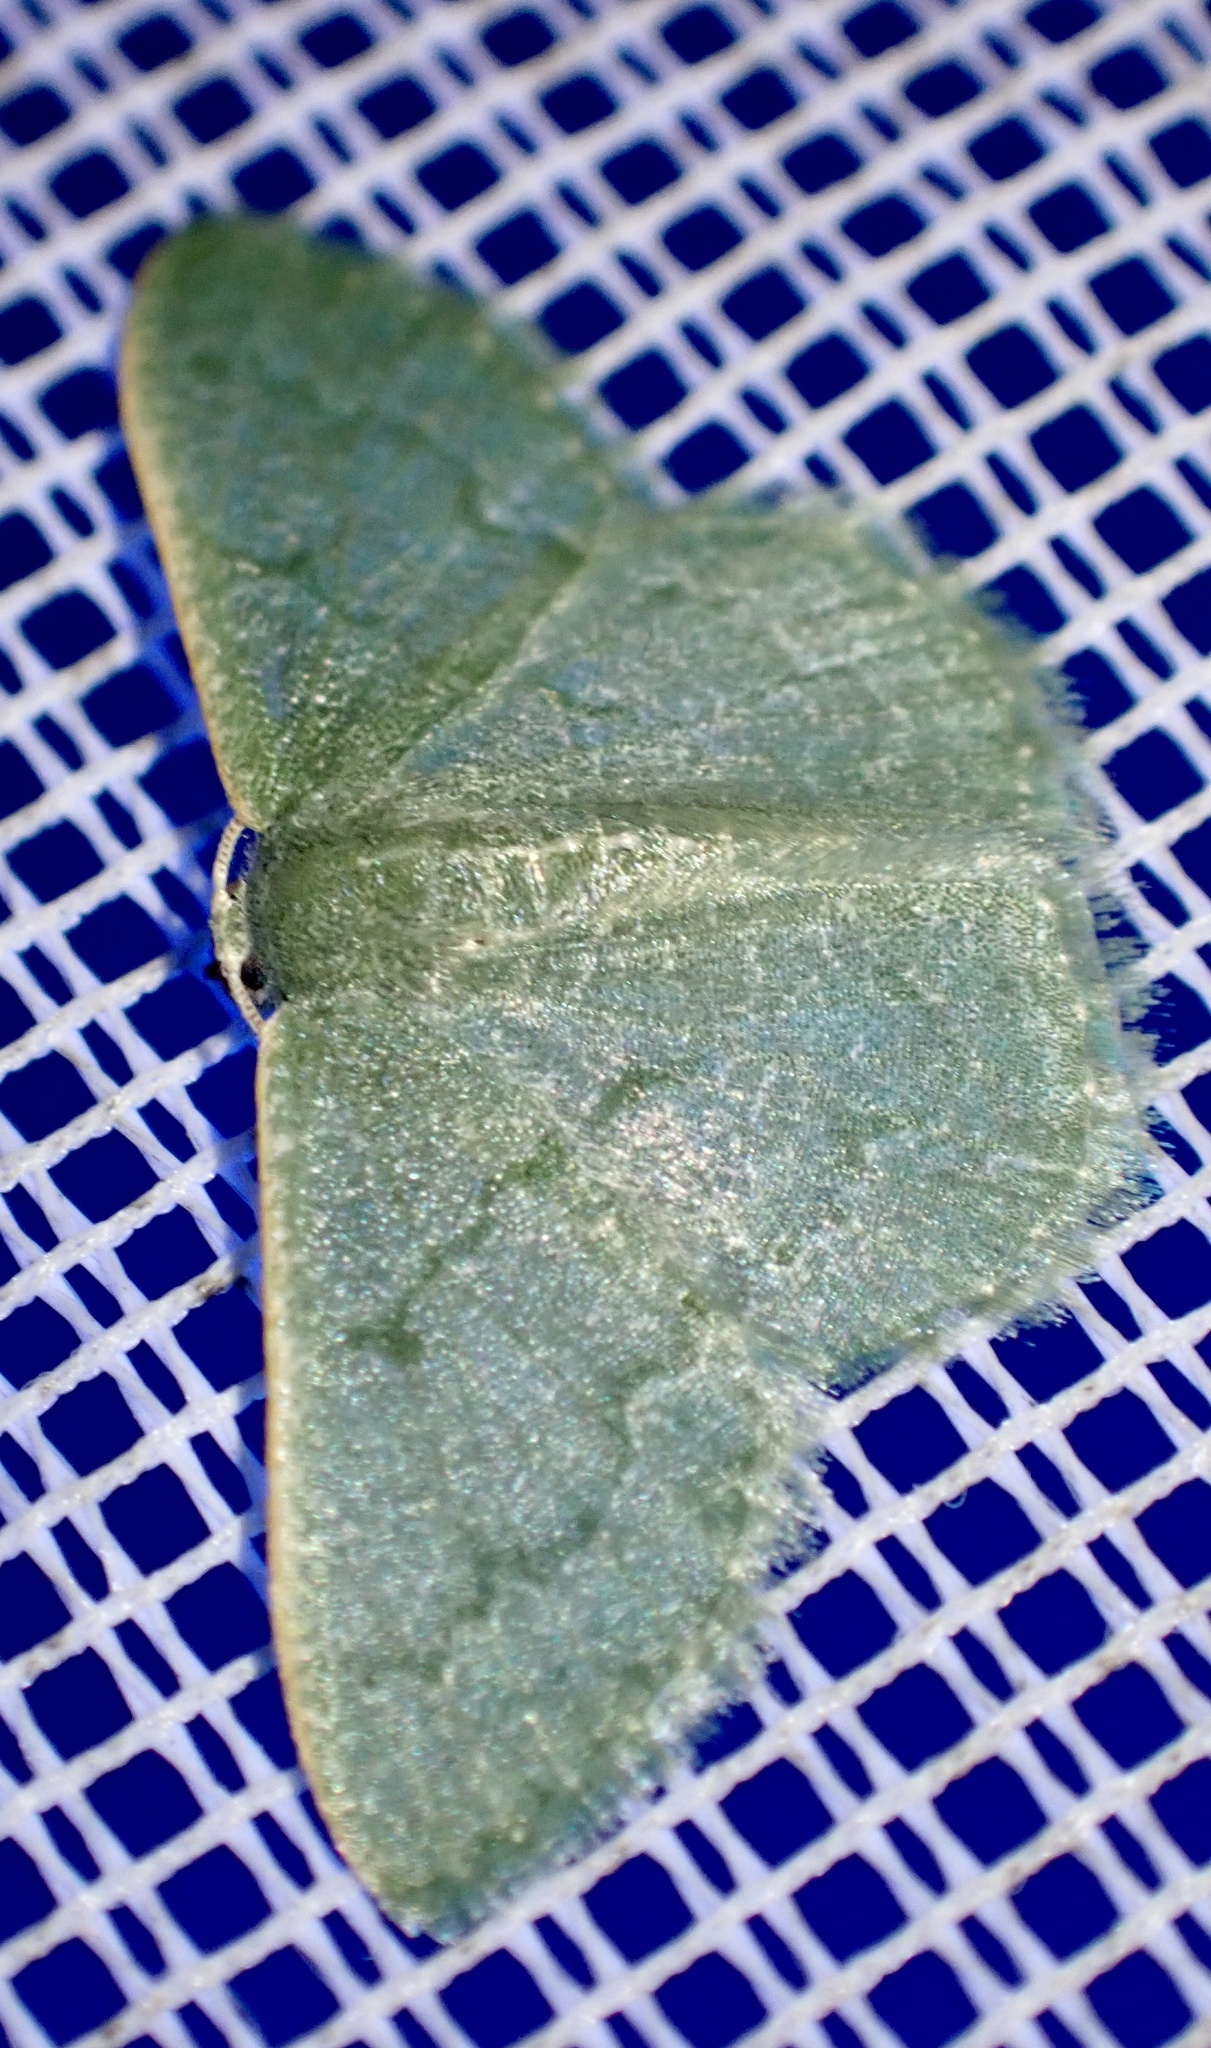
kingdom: Animalia
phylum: Arthropoda
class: Insecta
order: Lepidoptera
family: Geometridae
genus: Phaiogramma
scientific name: Phaiogramma faustinata
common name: Millière's emerald
